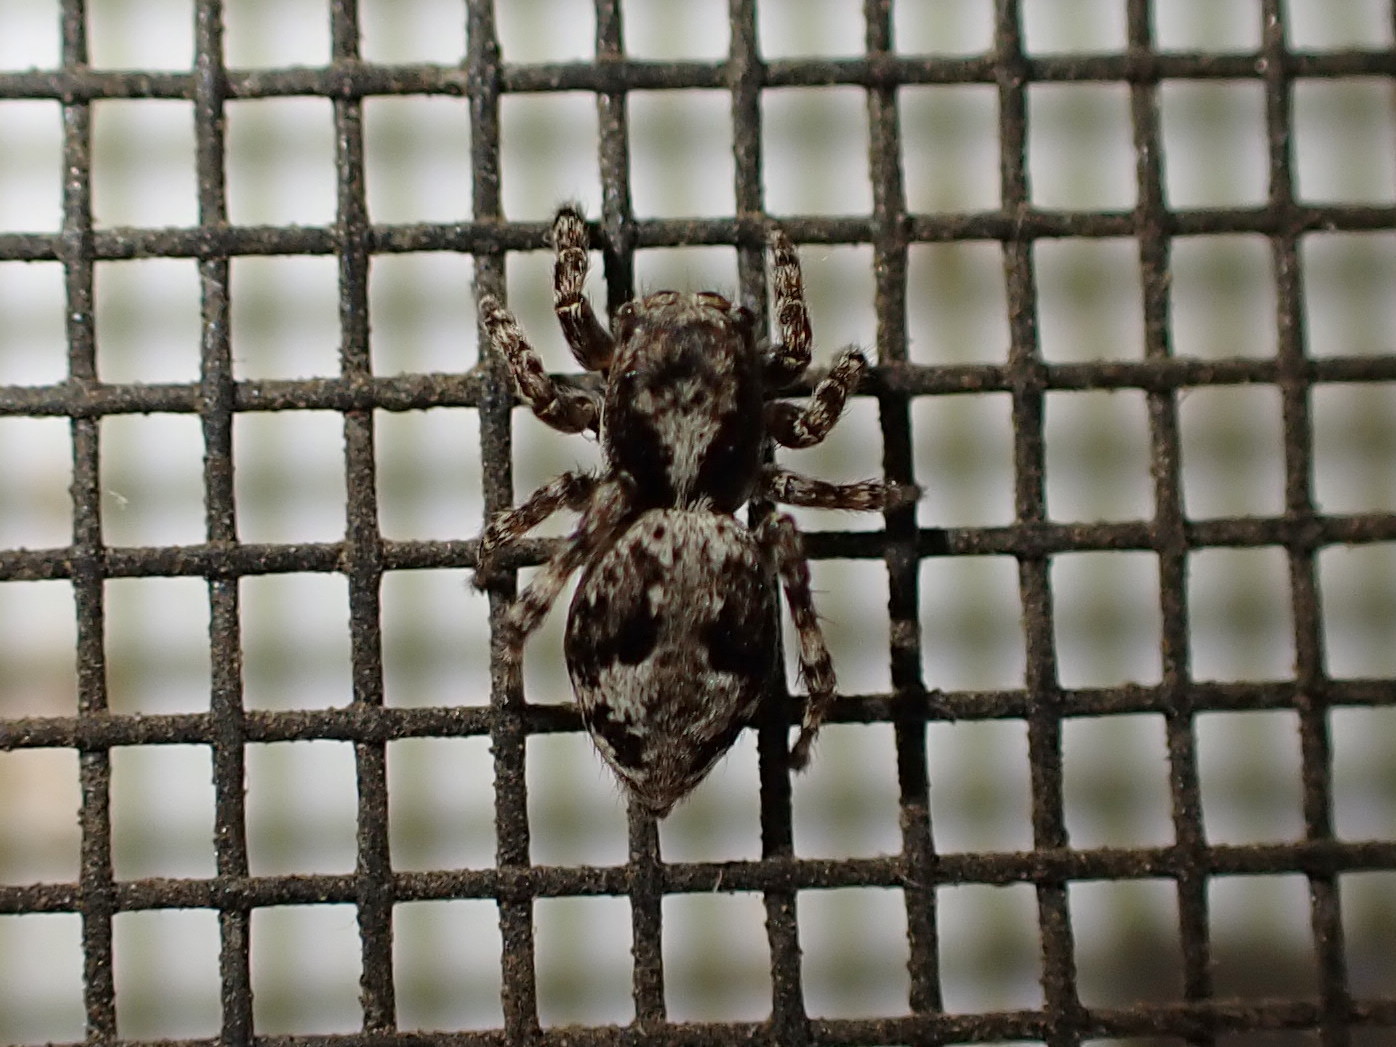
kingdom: Animalia
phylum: Arthropoda
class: Arachnida
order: Araneae
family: Salticidae
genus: Naphrys
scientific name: Naphrys pulex
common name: Flea jumping spider
